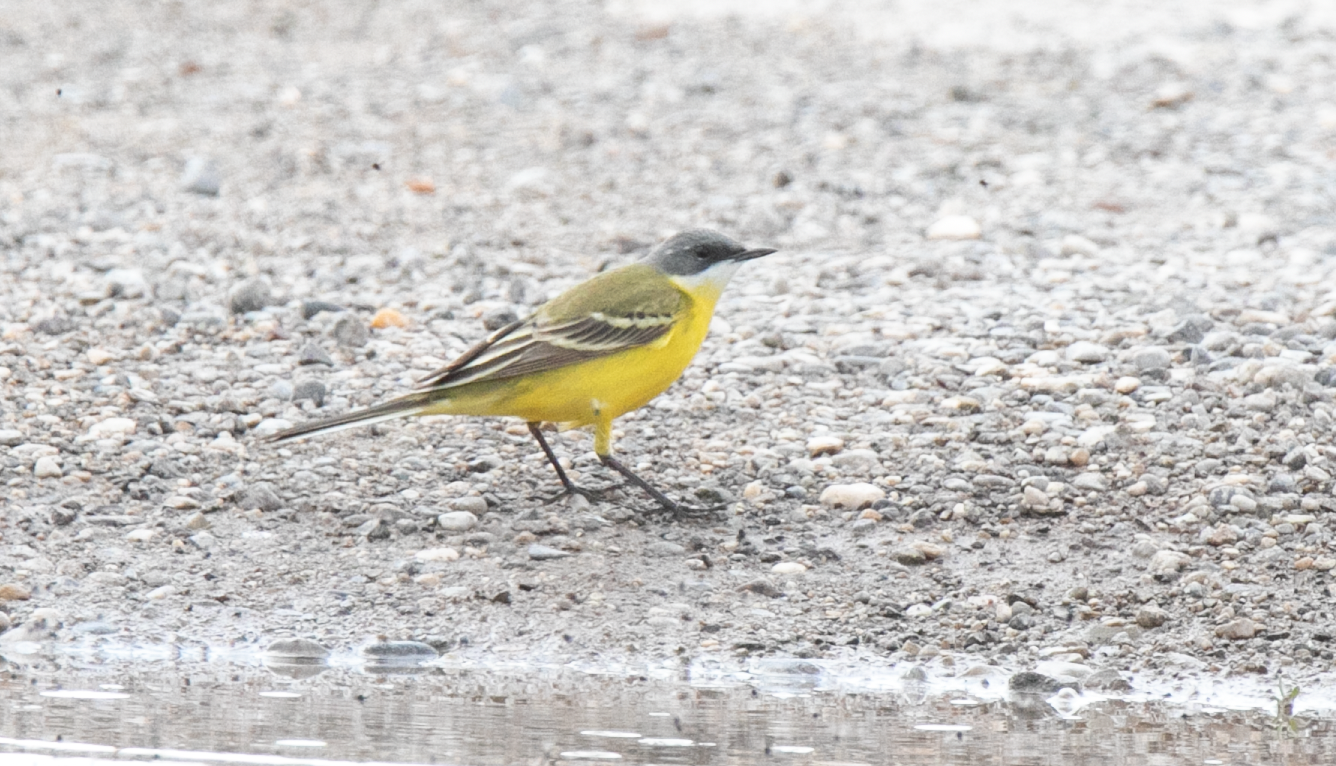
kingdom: Animalia
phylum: Chordata
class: Aves
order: Passeriformes
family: Motacillidae
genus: Motacilla
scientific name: Motacilla flava
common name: Western yellow wagtail
